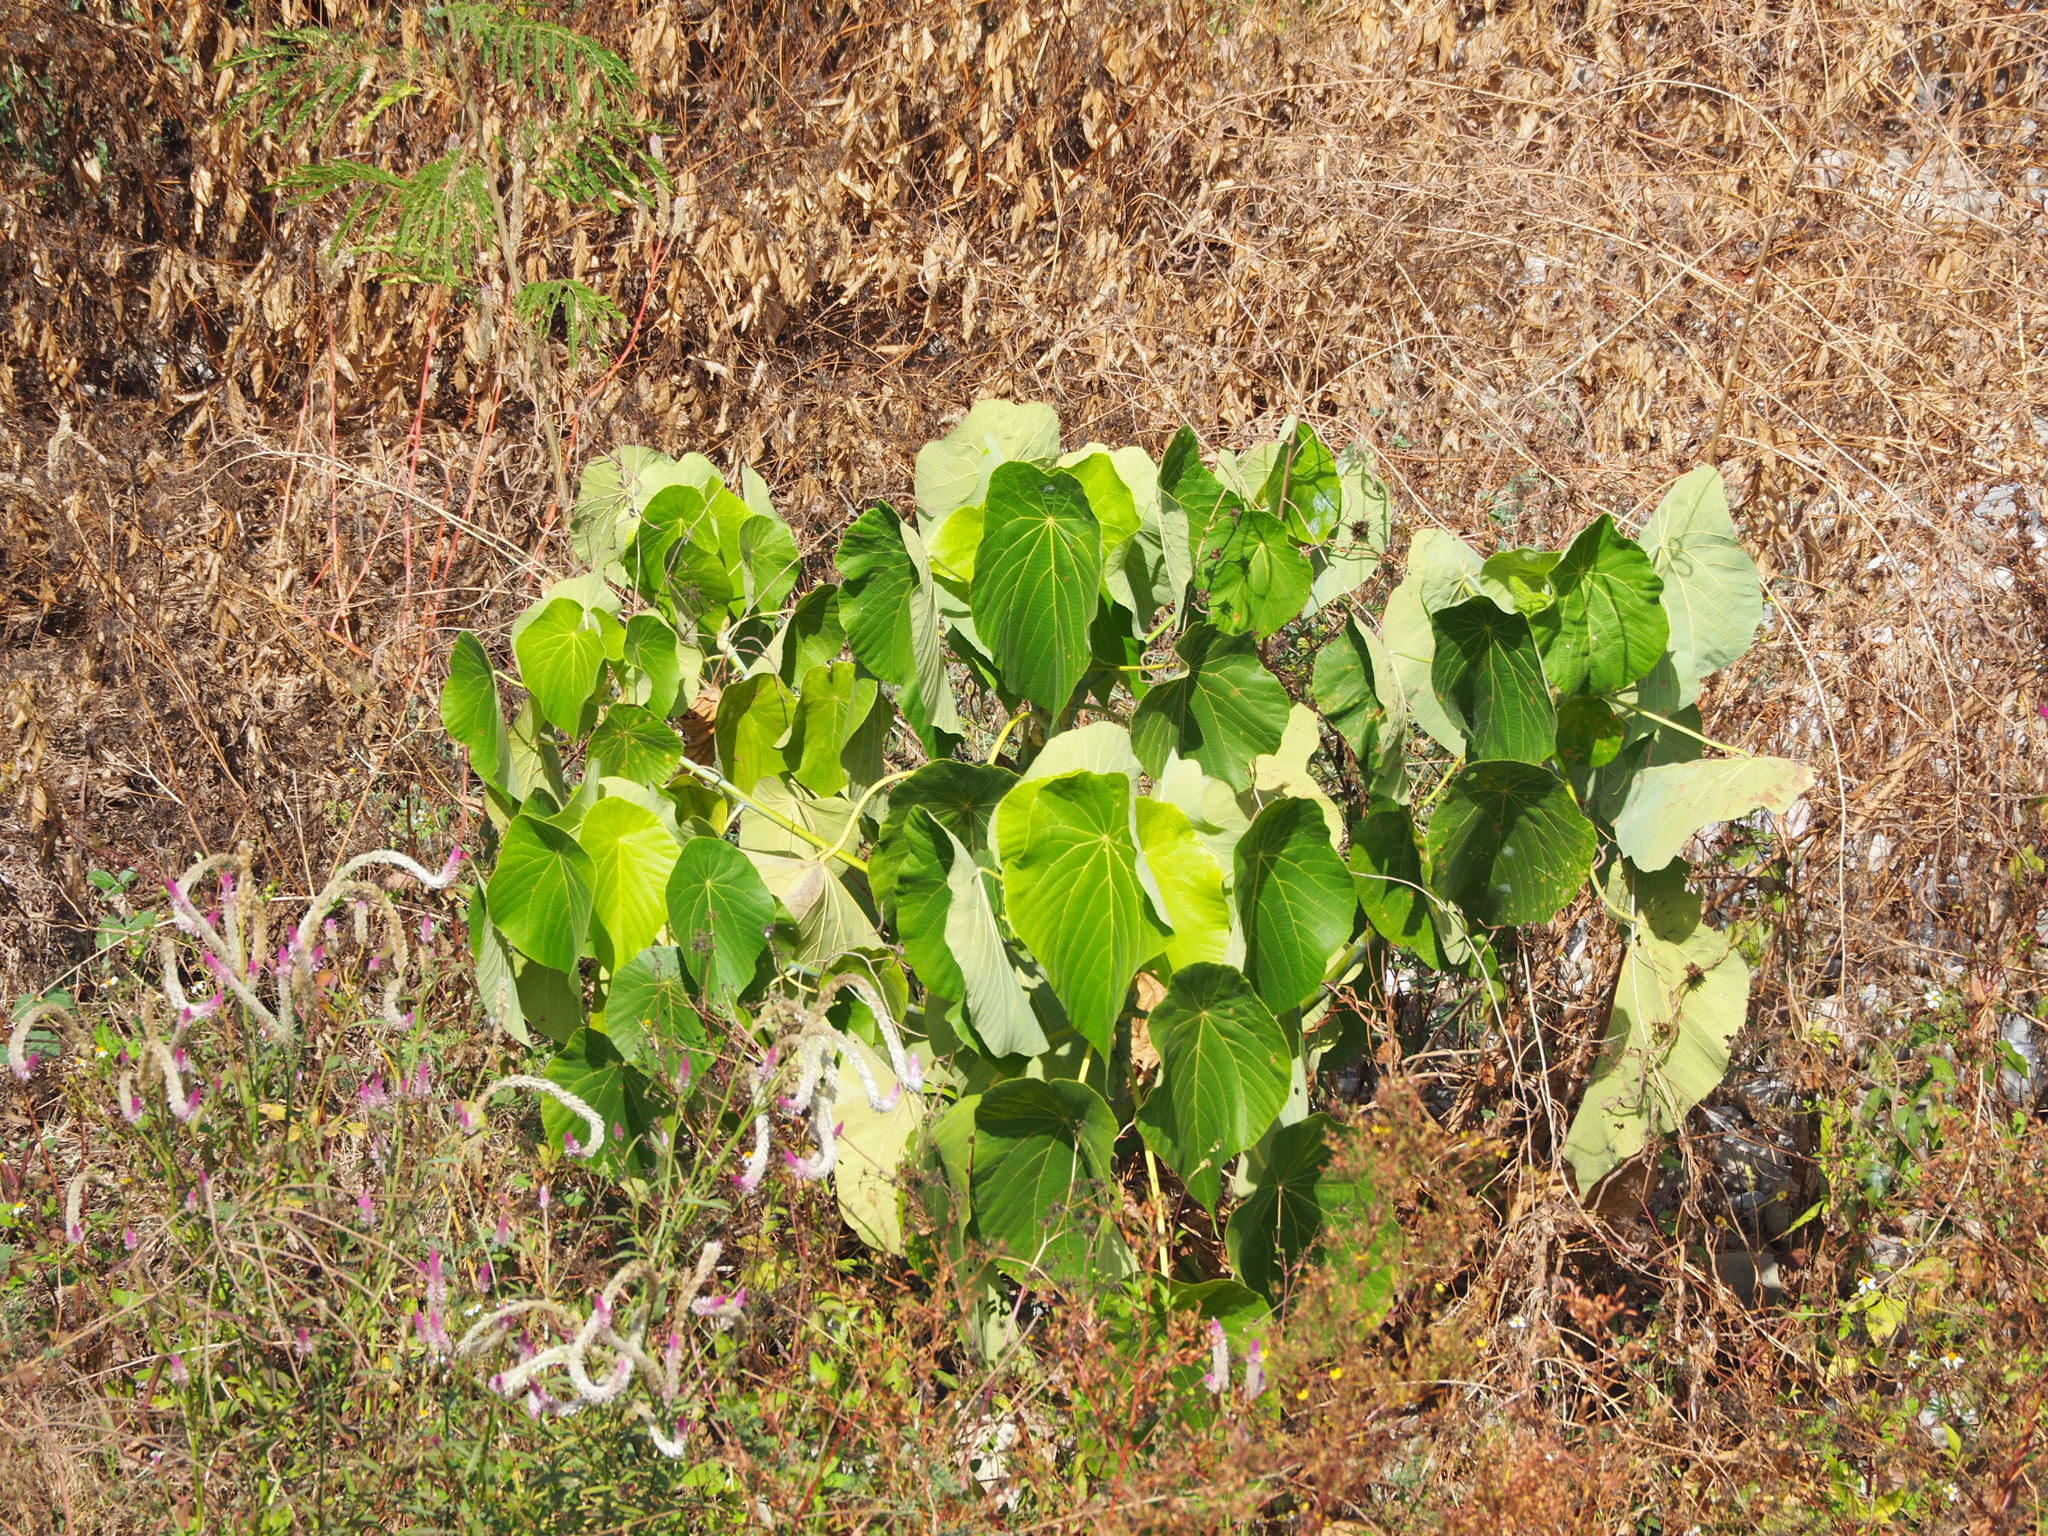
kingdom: Plantae
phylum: Tracheophyta
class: Magnoliopsida
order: Malpighiales
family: Euphorbiaceae
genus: Macaranga
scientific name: Macaranga tanarius
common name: Parasol leaf tree
